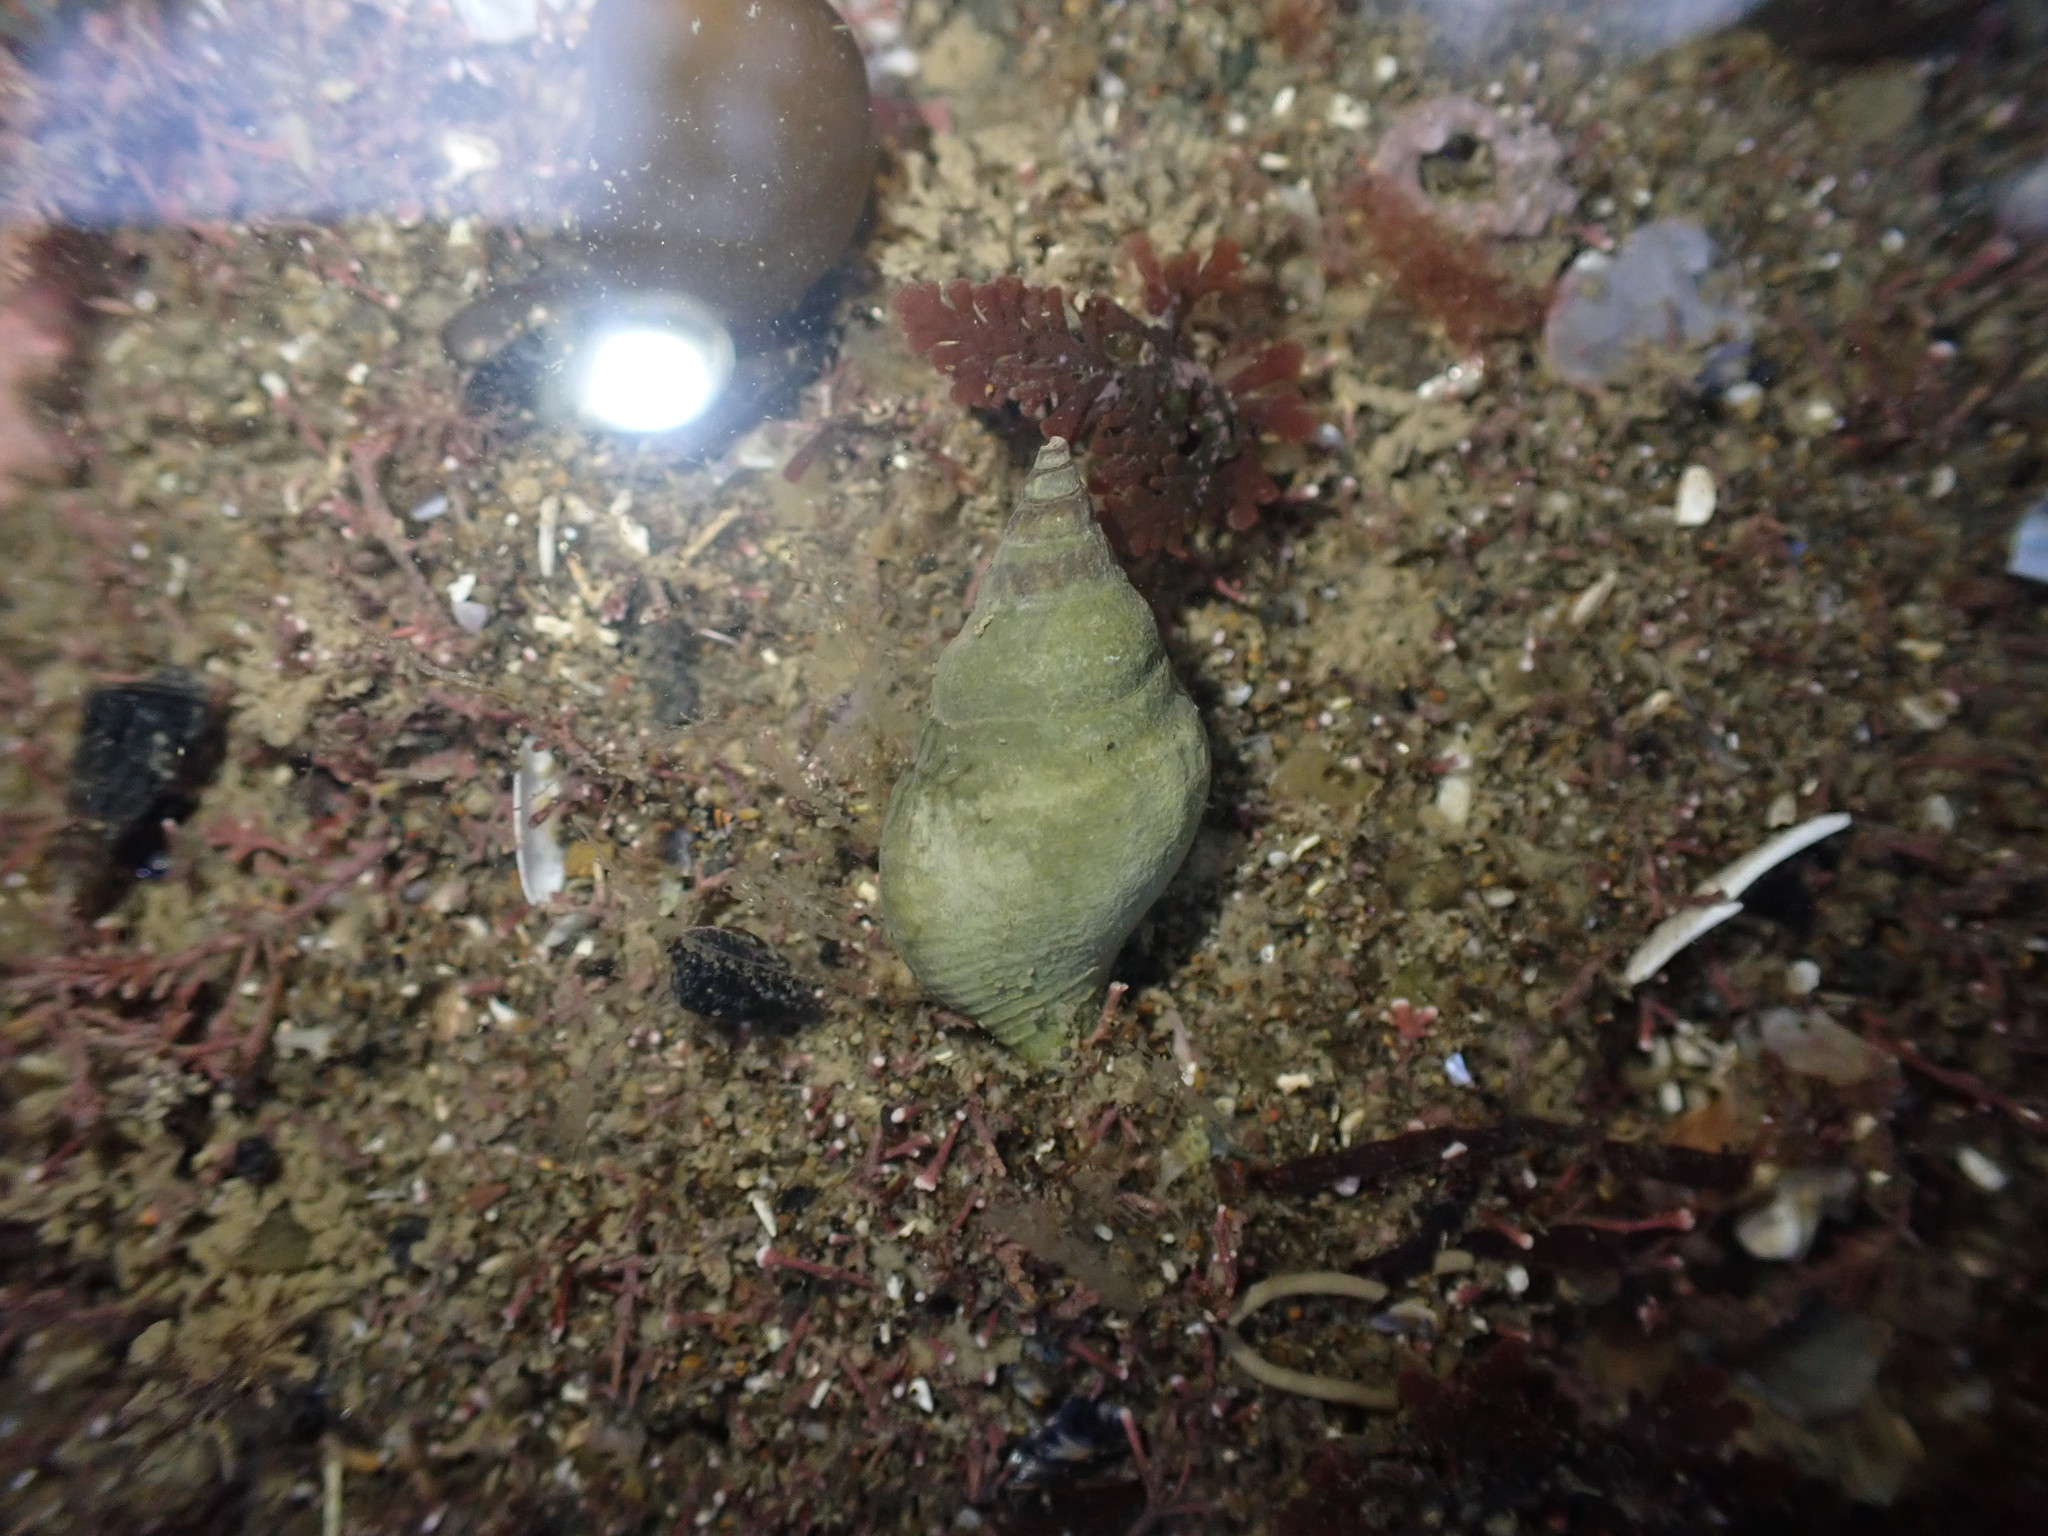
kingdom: Animalia
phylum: Mollusca
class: Gastropoda
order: Neogastropoda
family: Tudiclidae
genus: Buccinulum
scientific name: Buccinulum vittatum
